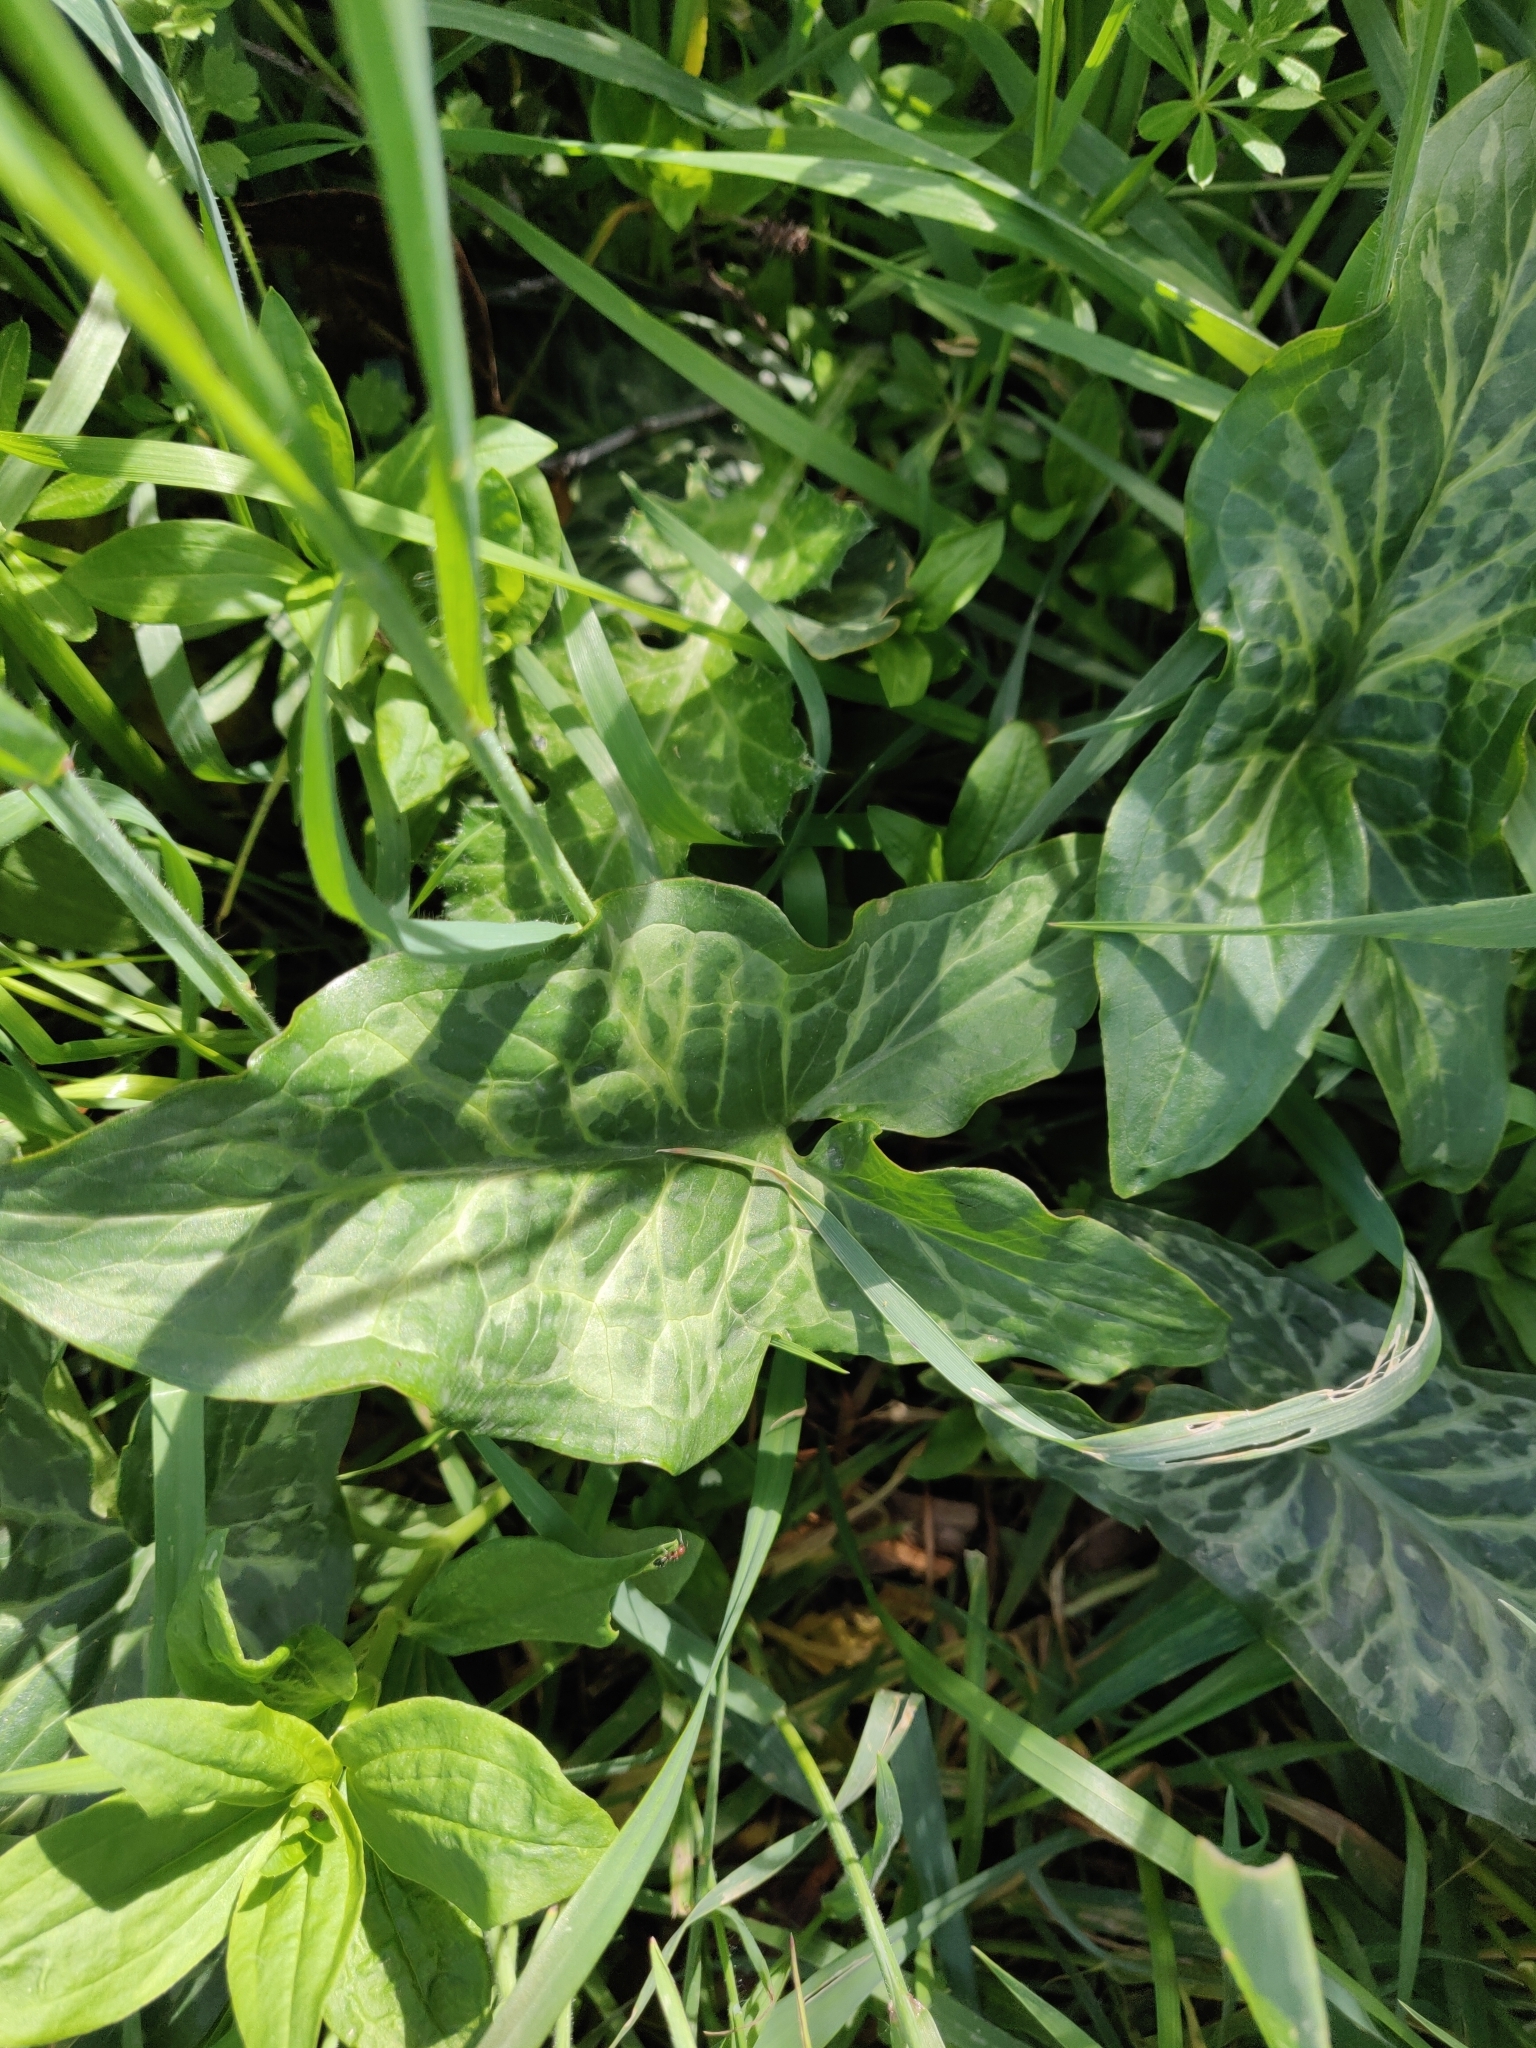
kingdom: Plantae
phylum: Tracheophyta
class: Liliopsida
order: Alismatales
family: Araceae
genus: Arum
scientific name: Arum italicum
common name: Italian lords-and-ladies
